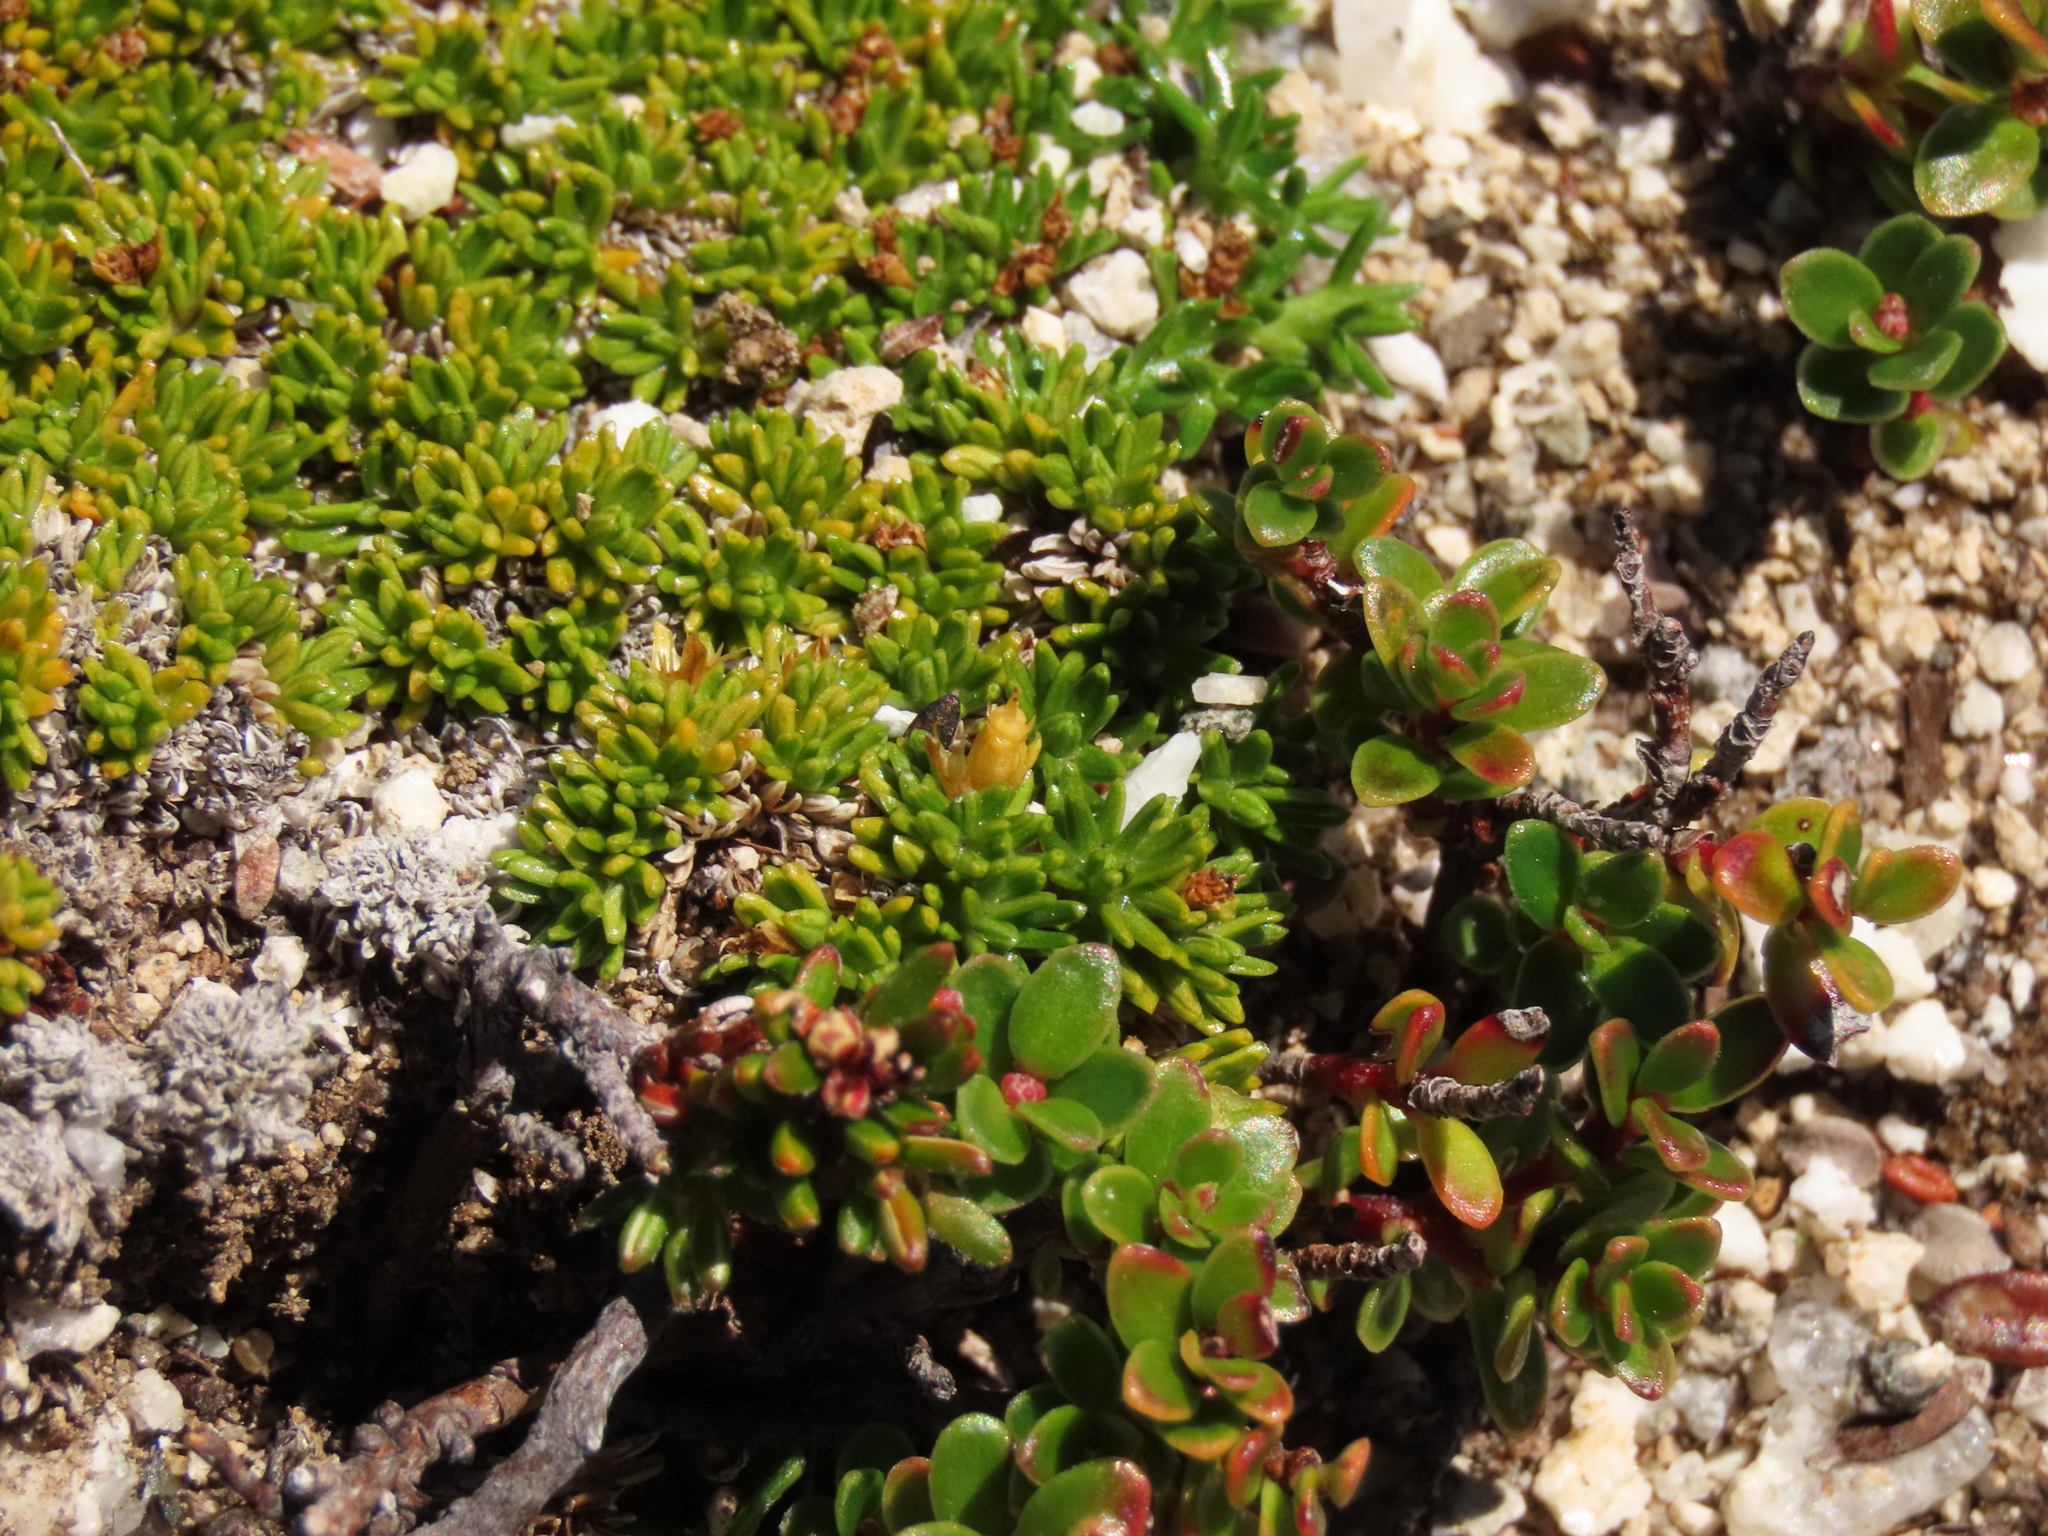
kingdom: Plantae
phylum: Tracheophyta
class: Magnoliopsida
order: Apiales
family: Apiaceae
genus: Azorella
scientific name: Azorella lycopodioides
